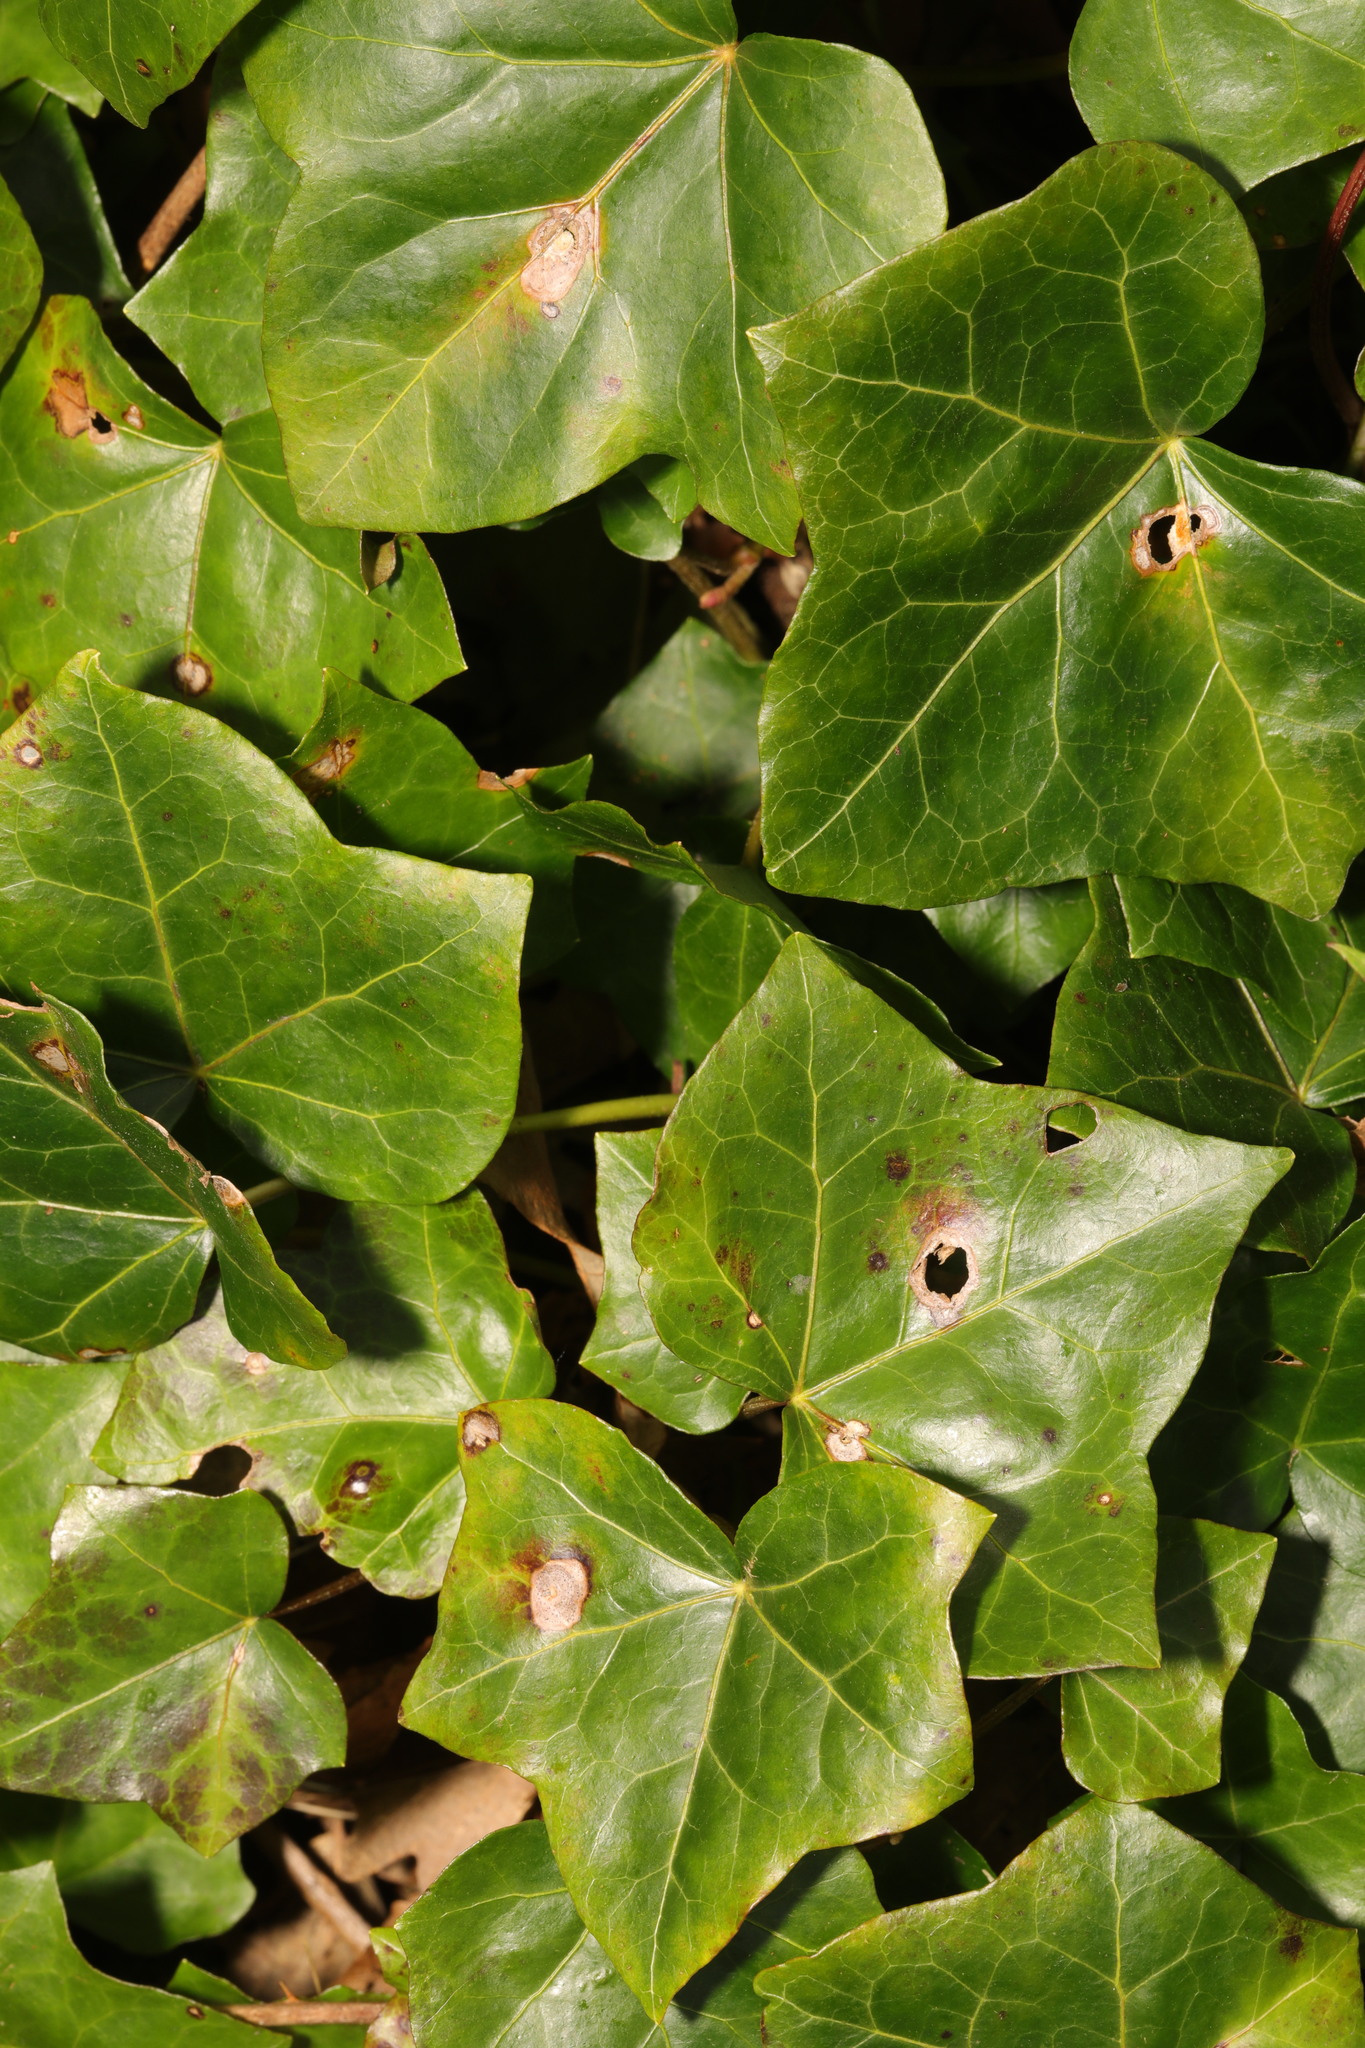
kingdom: Plantae
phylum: Tracheophyta
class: Magnoliopsida
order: Apiales
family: Araliaceae
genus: Hedera
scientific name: Hedera helix
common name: Ivy
